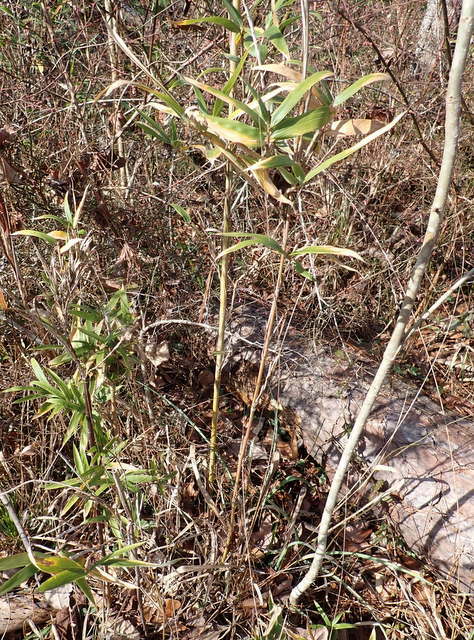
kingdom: Plantae
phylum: Tracheophyta
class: Liliopsida
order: Poales
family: Poaceae
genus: Arundinaria
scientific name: Arundinaria gigantea
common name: Giant cane
